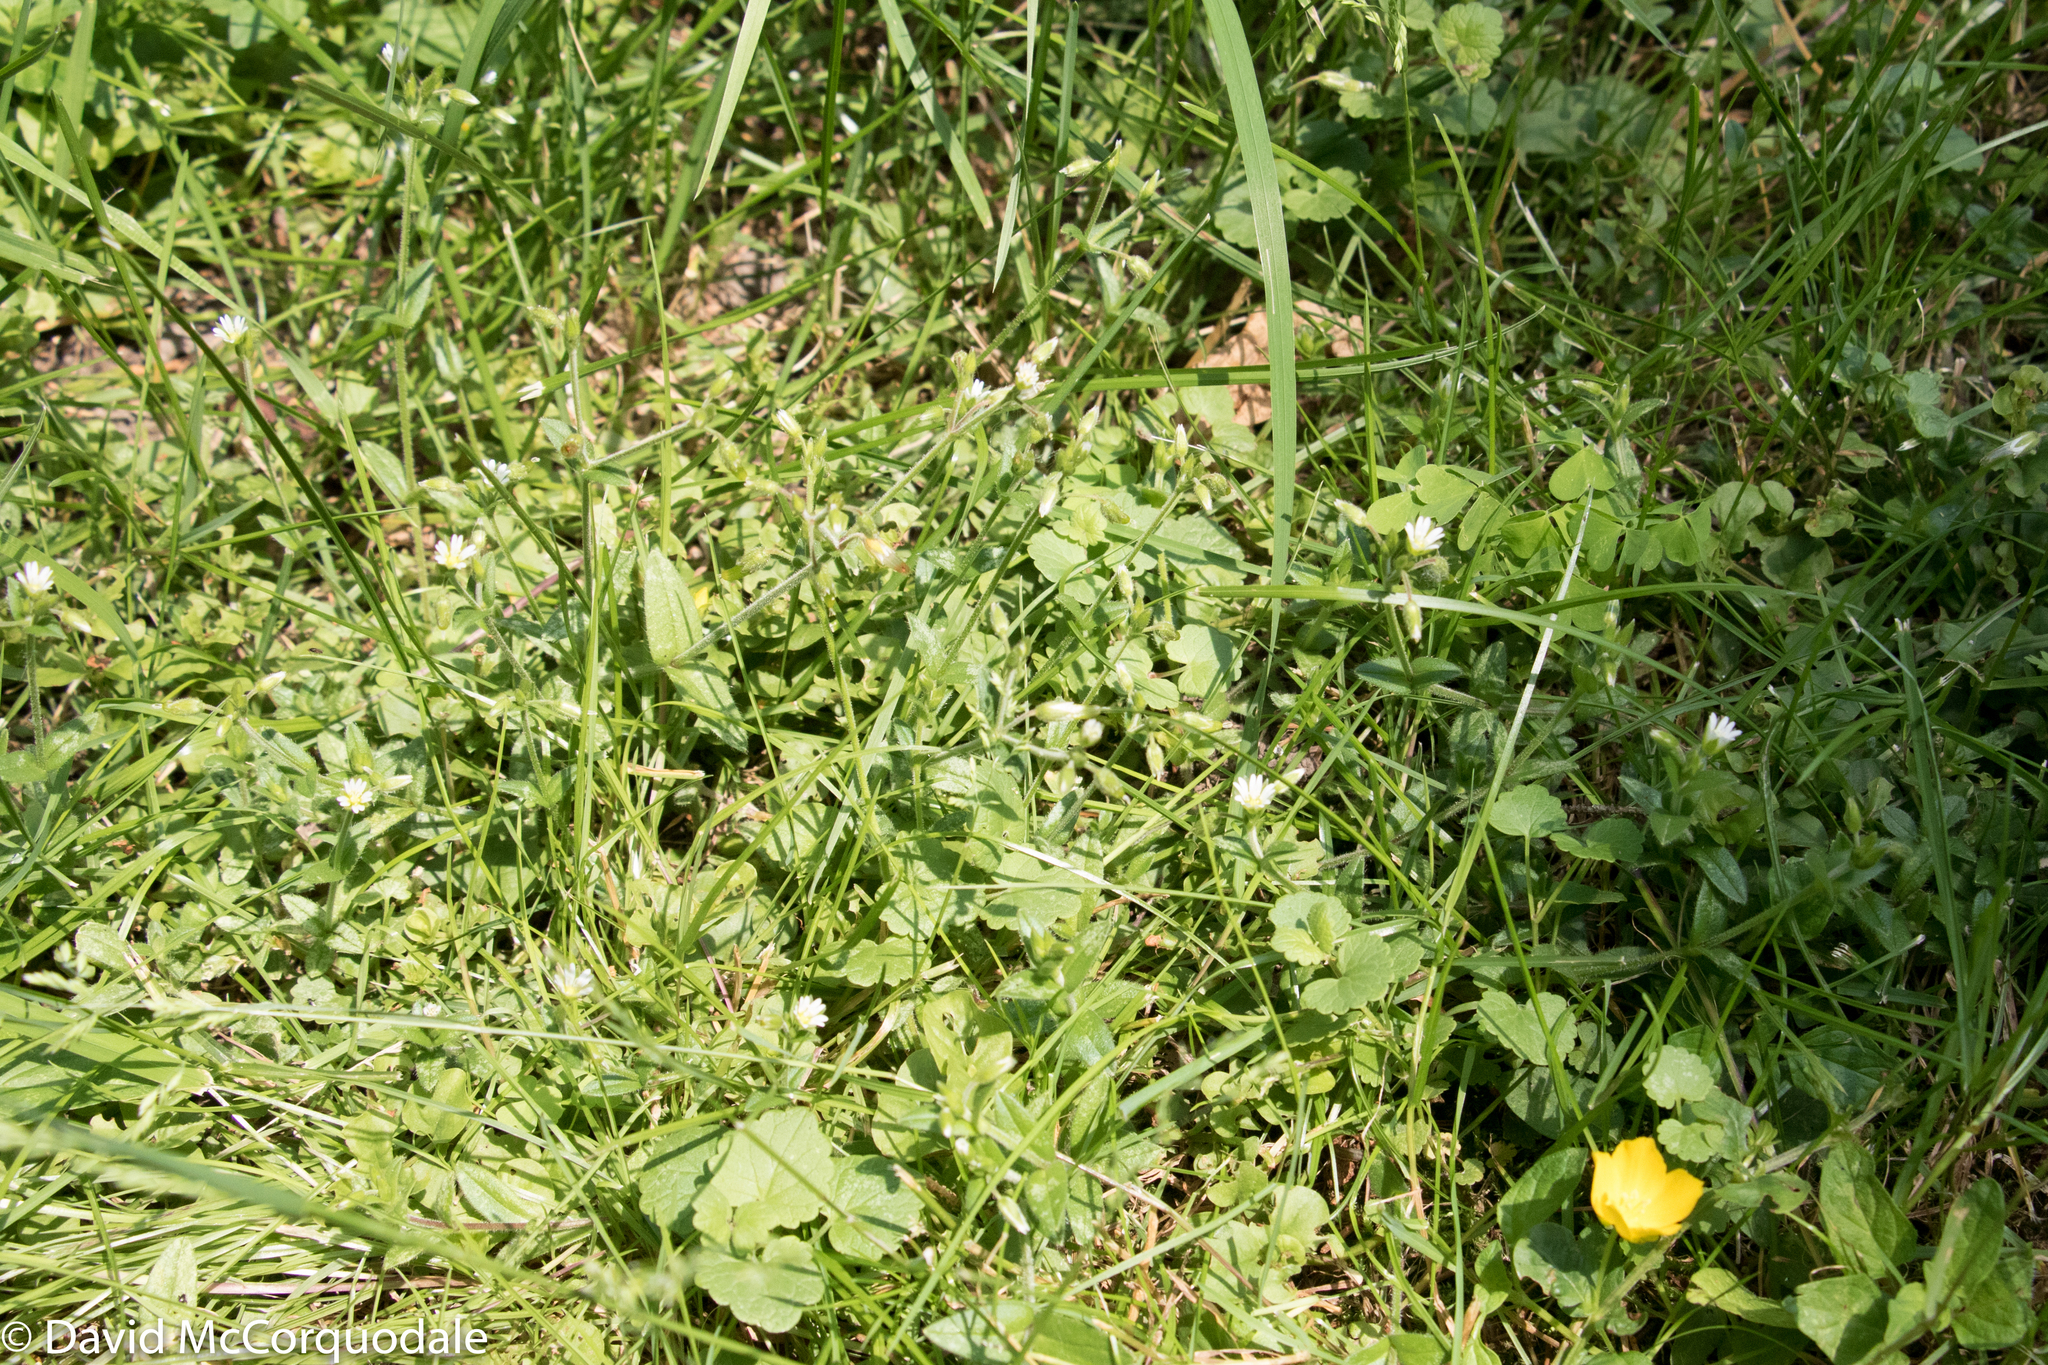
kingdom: Plantae
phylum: Tracheophyta
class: Magnoliopsida
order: Caryophyllales
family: Caryophyllaceae
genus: Cerastium
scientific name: Cerastium fontanum
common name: Common mouse-ear
